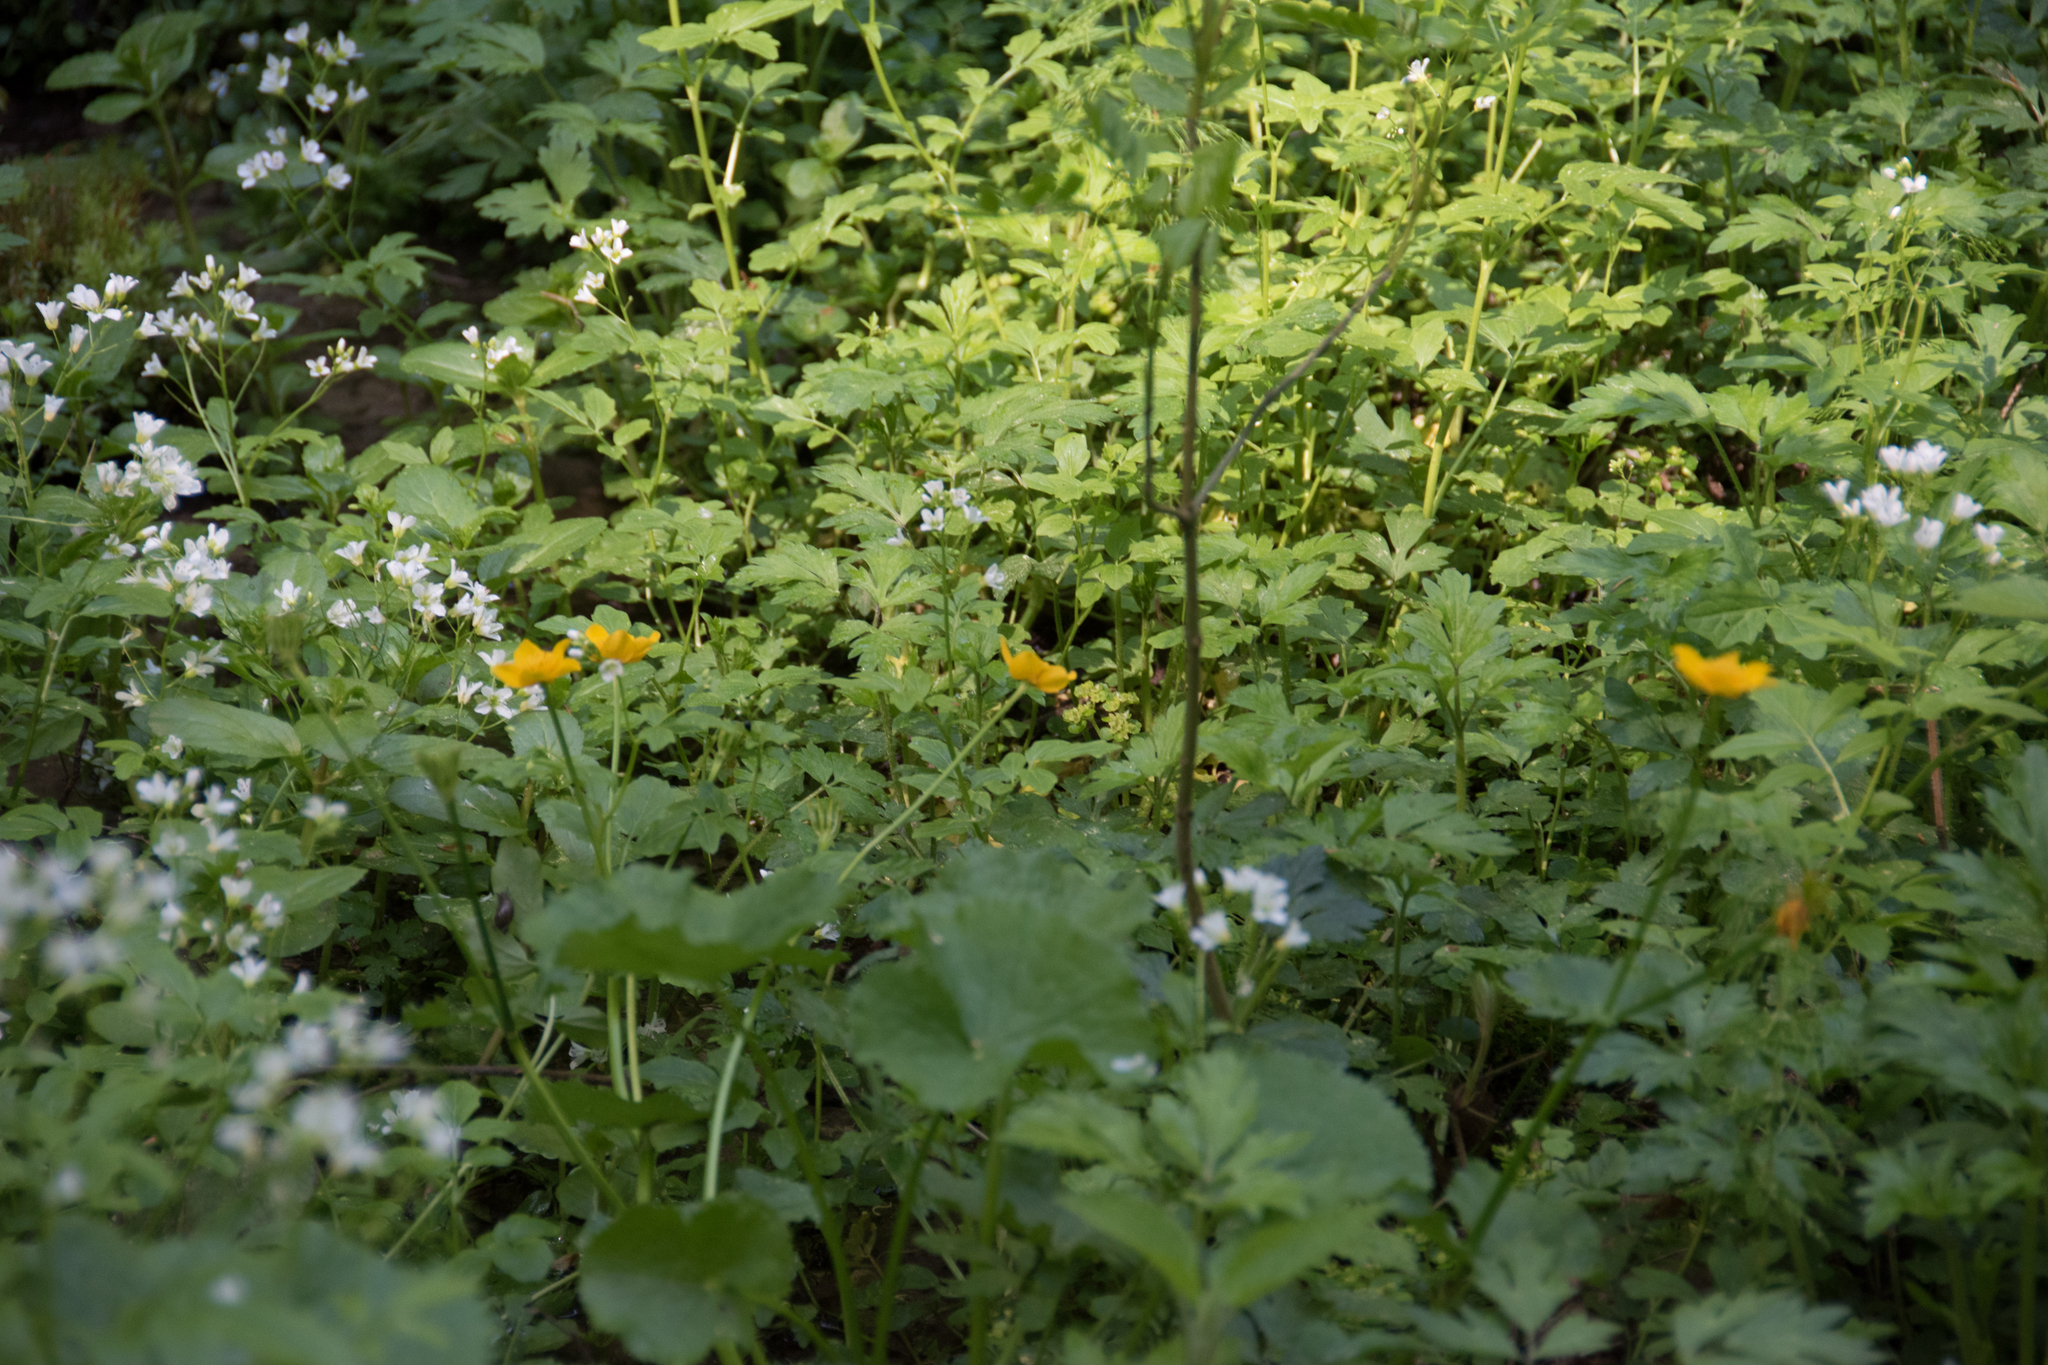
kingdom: Plantae
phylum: Tracheophyta
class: Magnoliopsida
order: Ranunculales
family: Ranunculaceae
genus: Caltha
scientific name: Caltha palustris
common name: Marsh marigold
